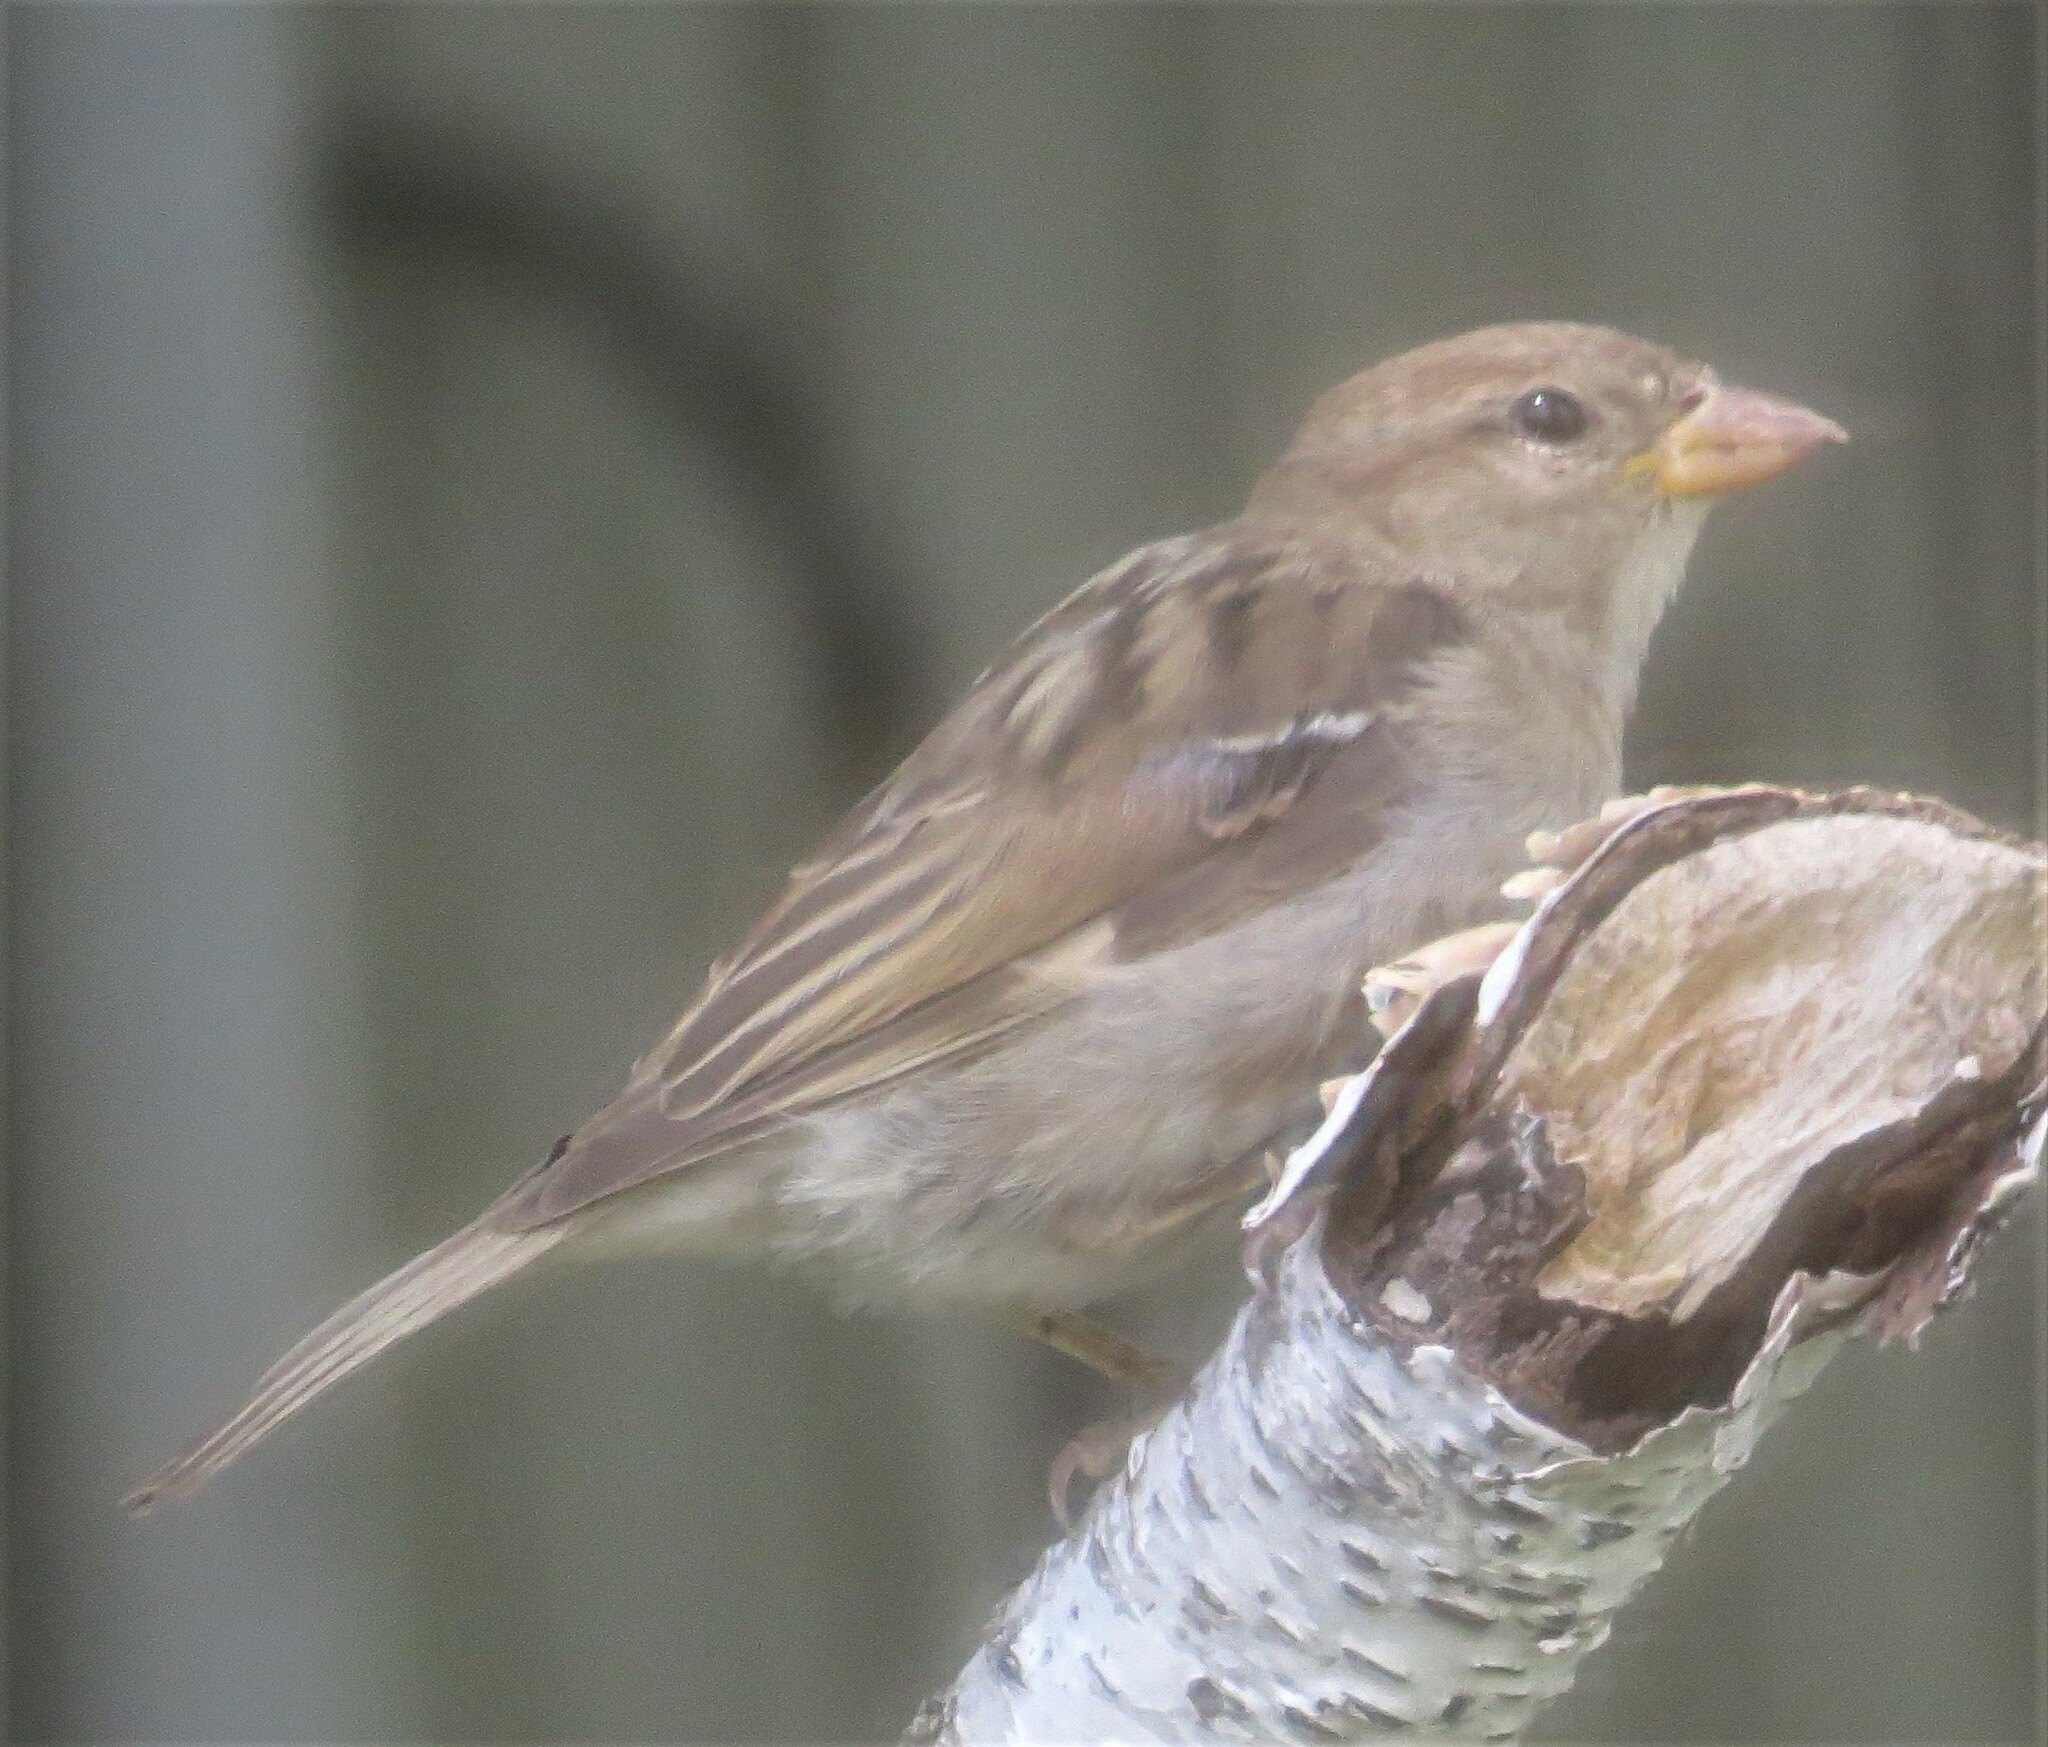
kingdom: Animalia
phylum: Chordata
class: Aves
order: Passeriformes
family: Passeridae
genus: Passer
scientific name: Passer domesticus
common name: House sparrow
